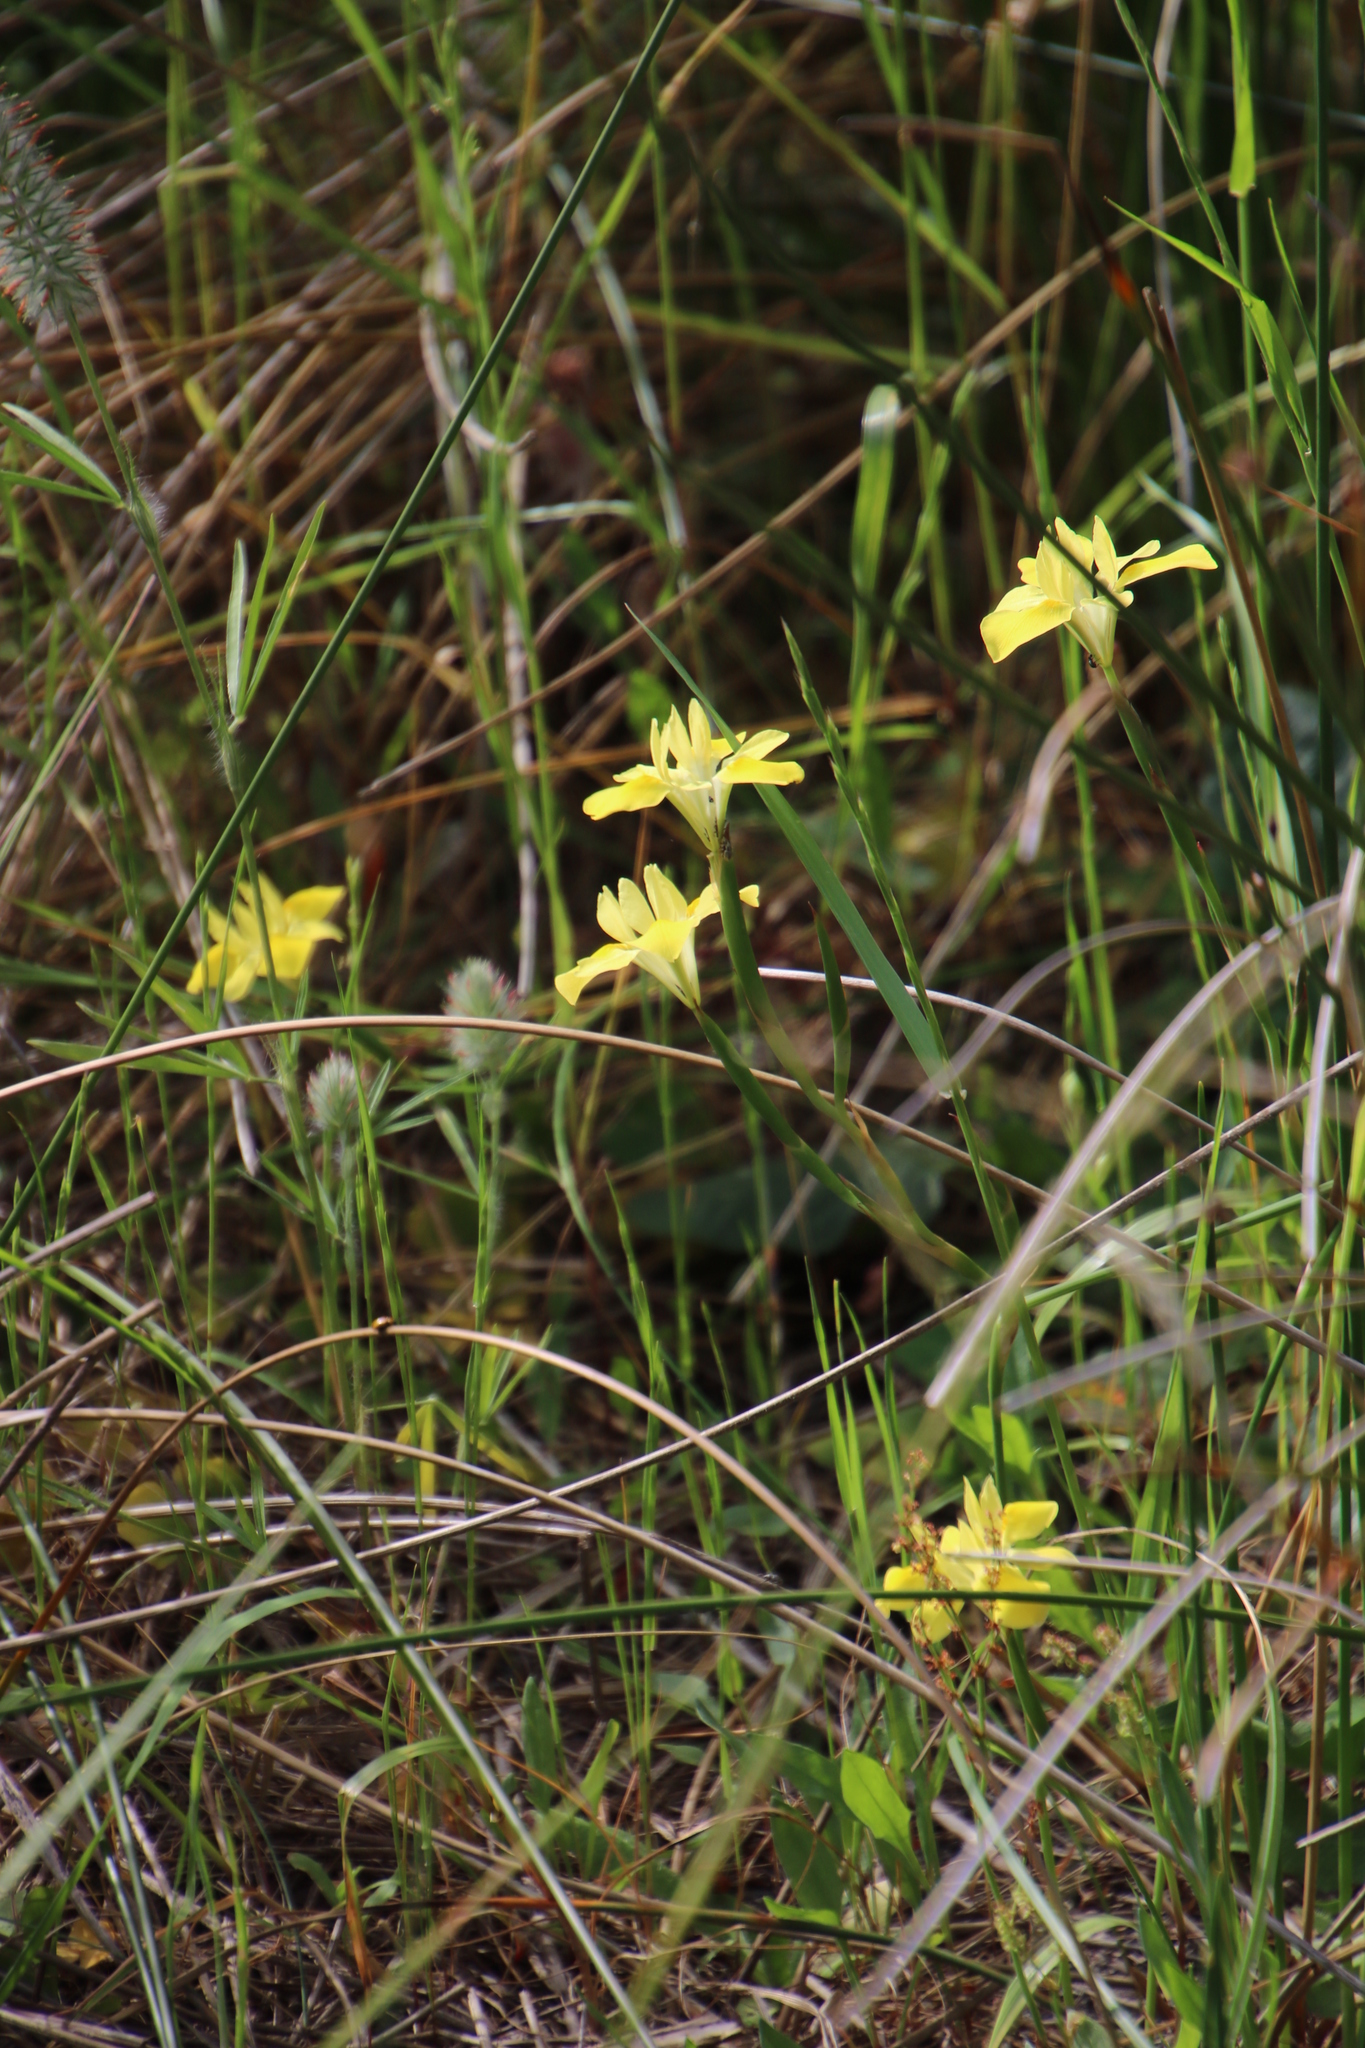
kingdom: Plantae
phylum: Tracheophyta
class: Liliopsida
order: Asparagales
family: Iridaceae
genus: Moraea
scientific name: Moraea fugax
